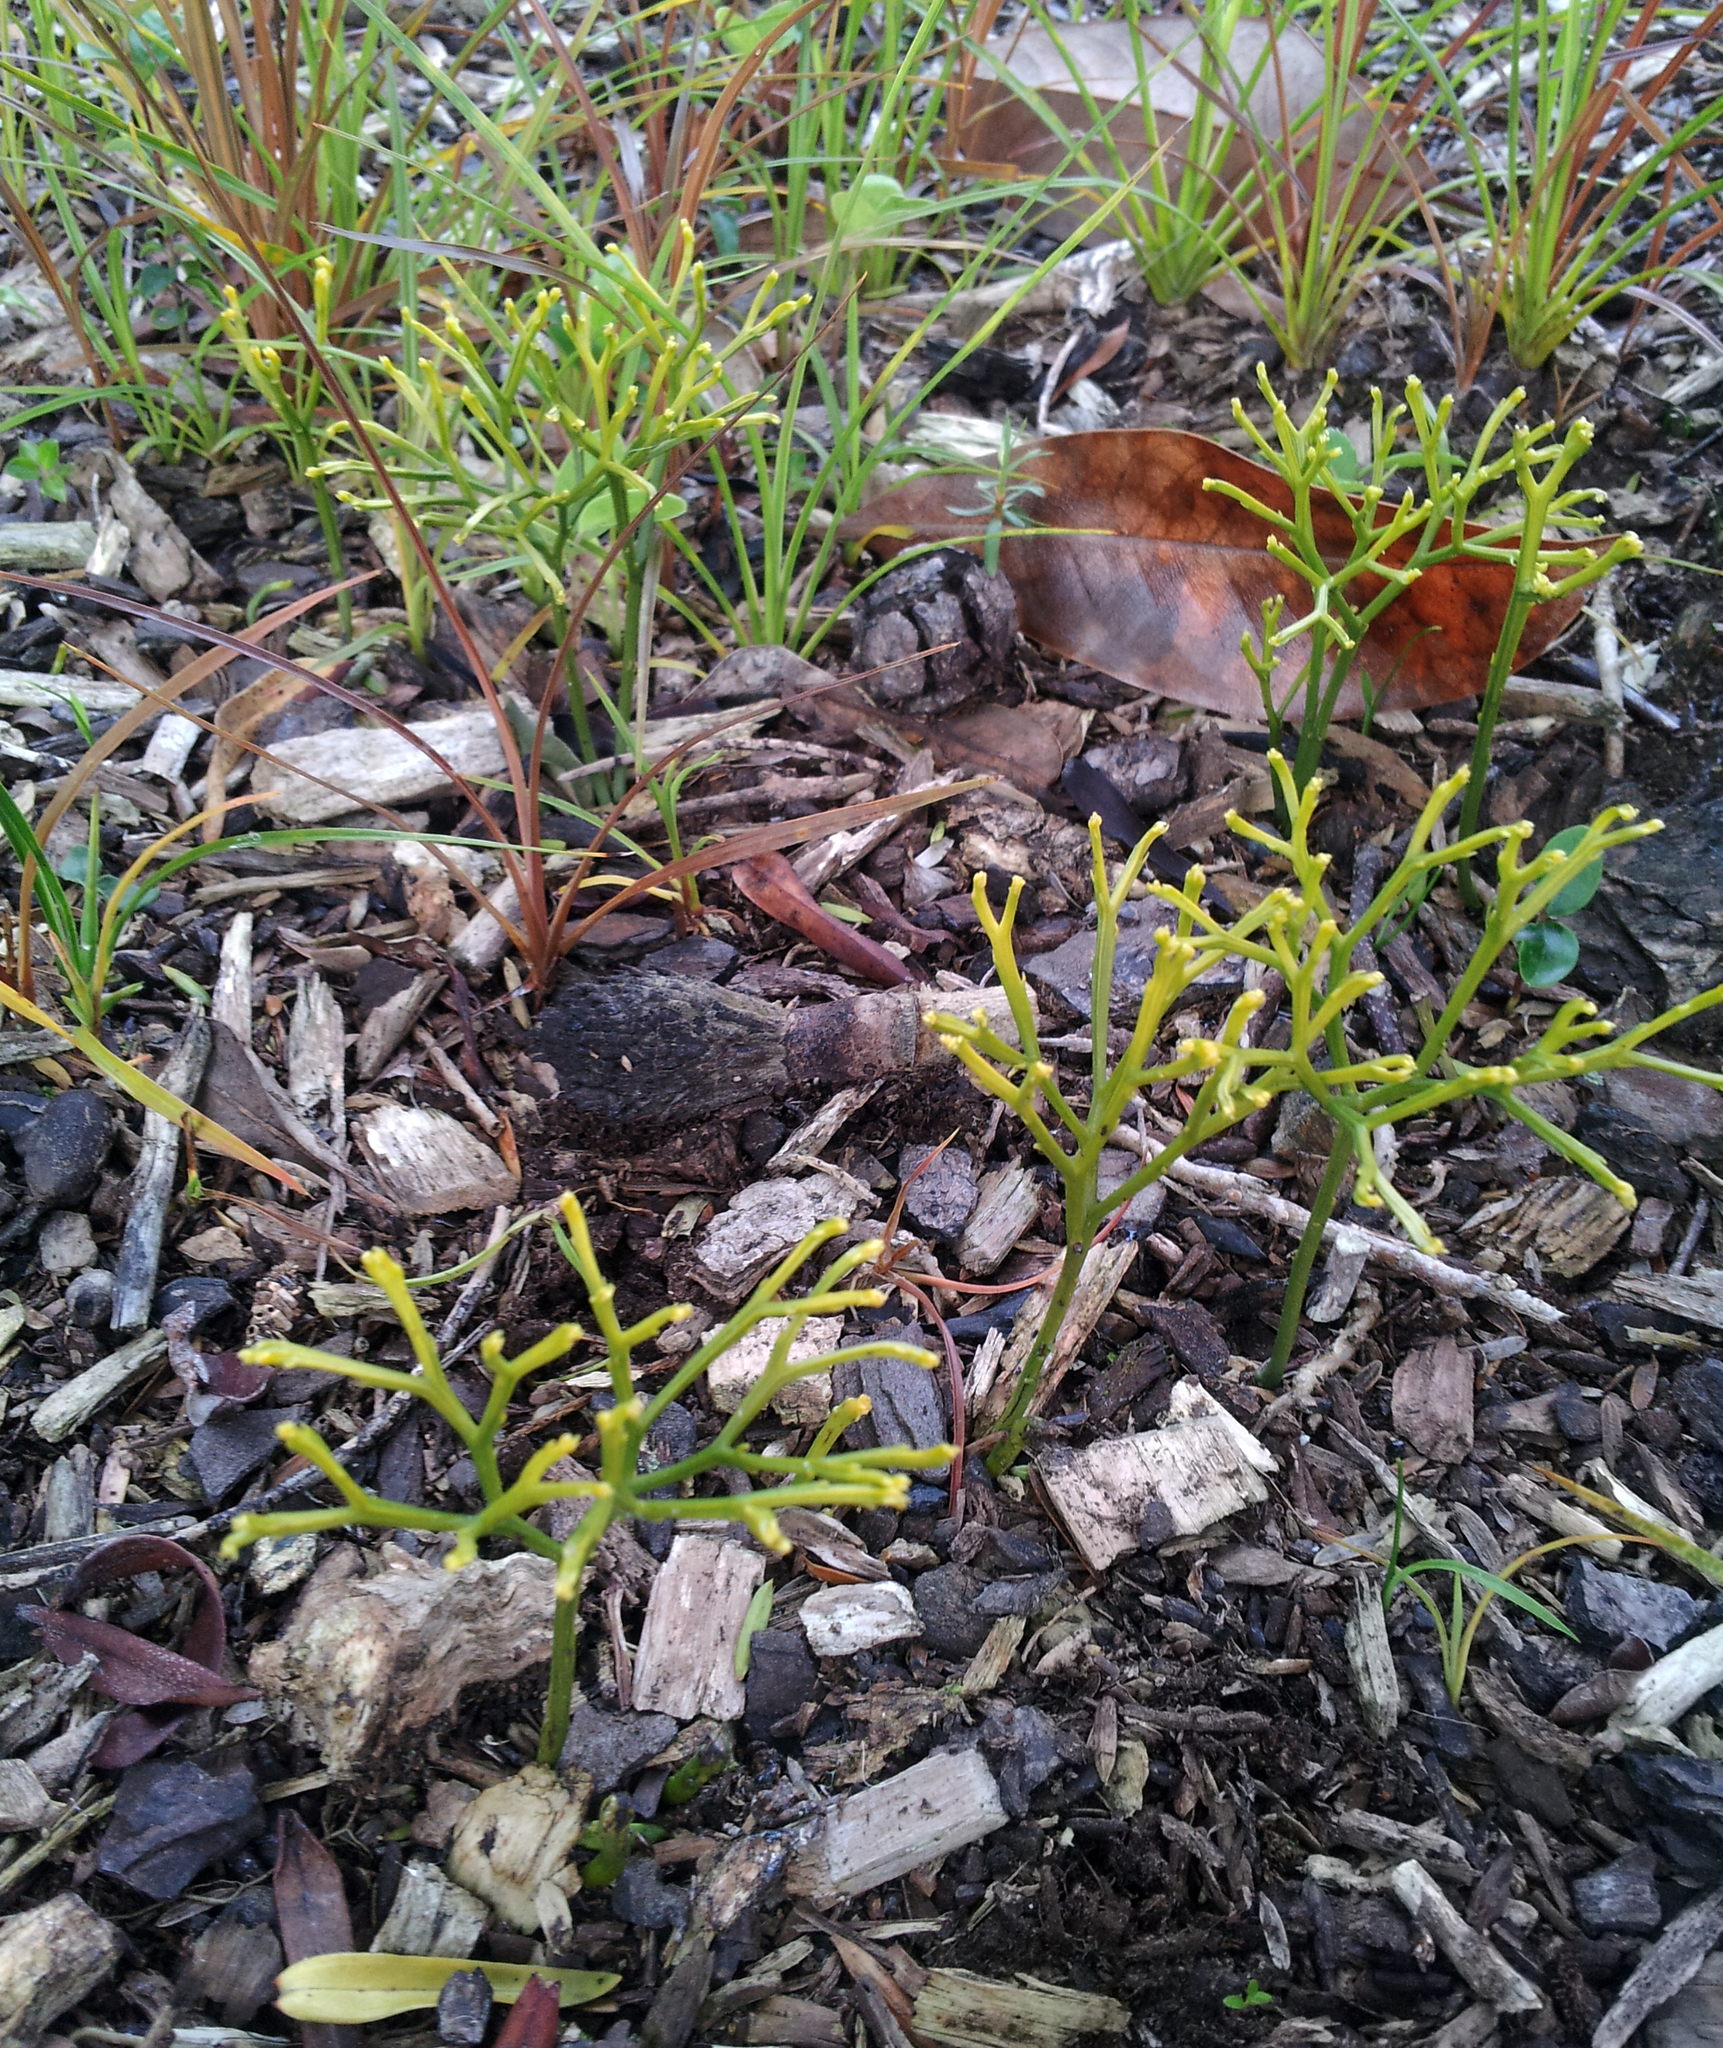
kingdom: Plantae
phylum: Tracheophyta
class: Polypodiopsida
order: Psilotales
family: Psilotaceae
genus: Psilotum
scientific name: Psilotum nudum
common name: Skeleton fork fern
